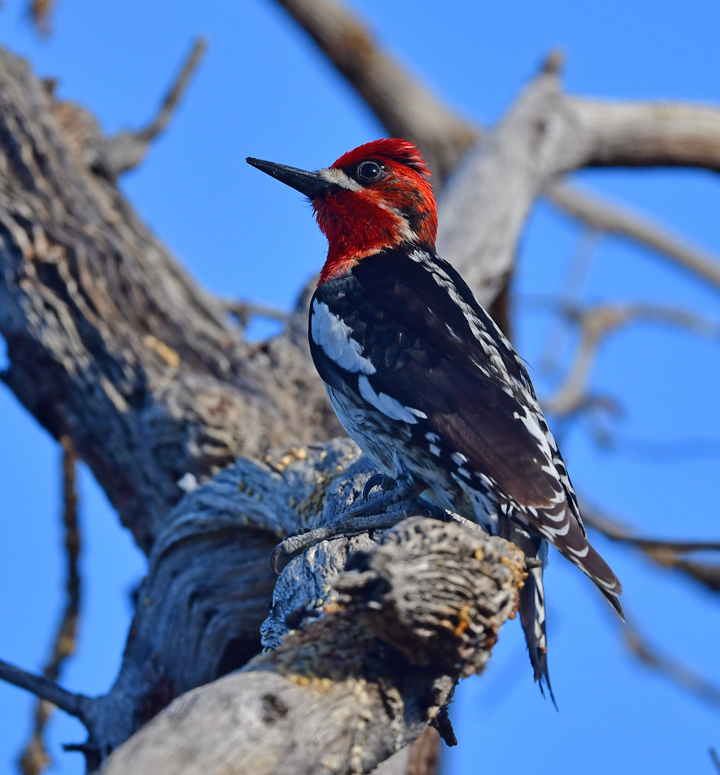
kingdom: Animalia
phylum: Chordata
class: Aves
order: Piciformes
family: Picidae
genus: Sphyrapicus
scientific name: Sphyrapicus ruber
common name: Red-breasted sapsucker
